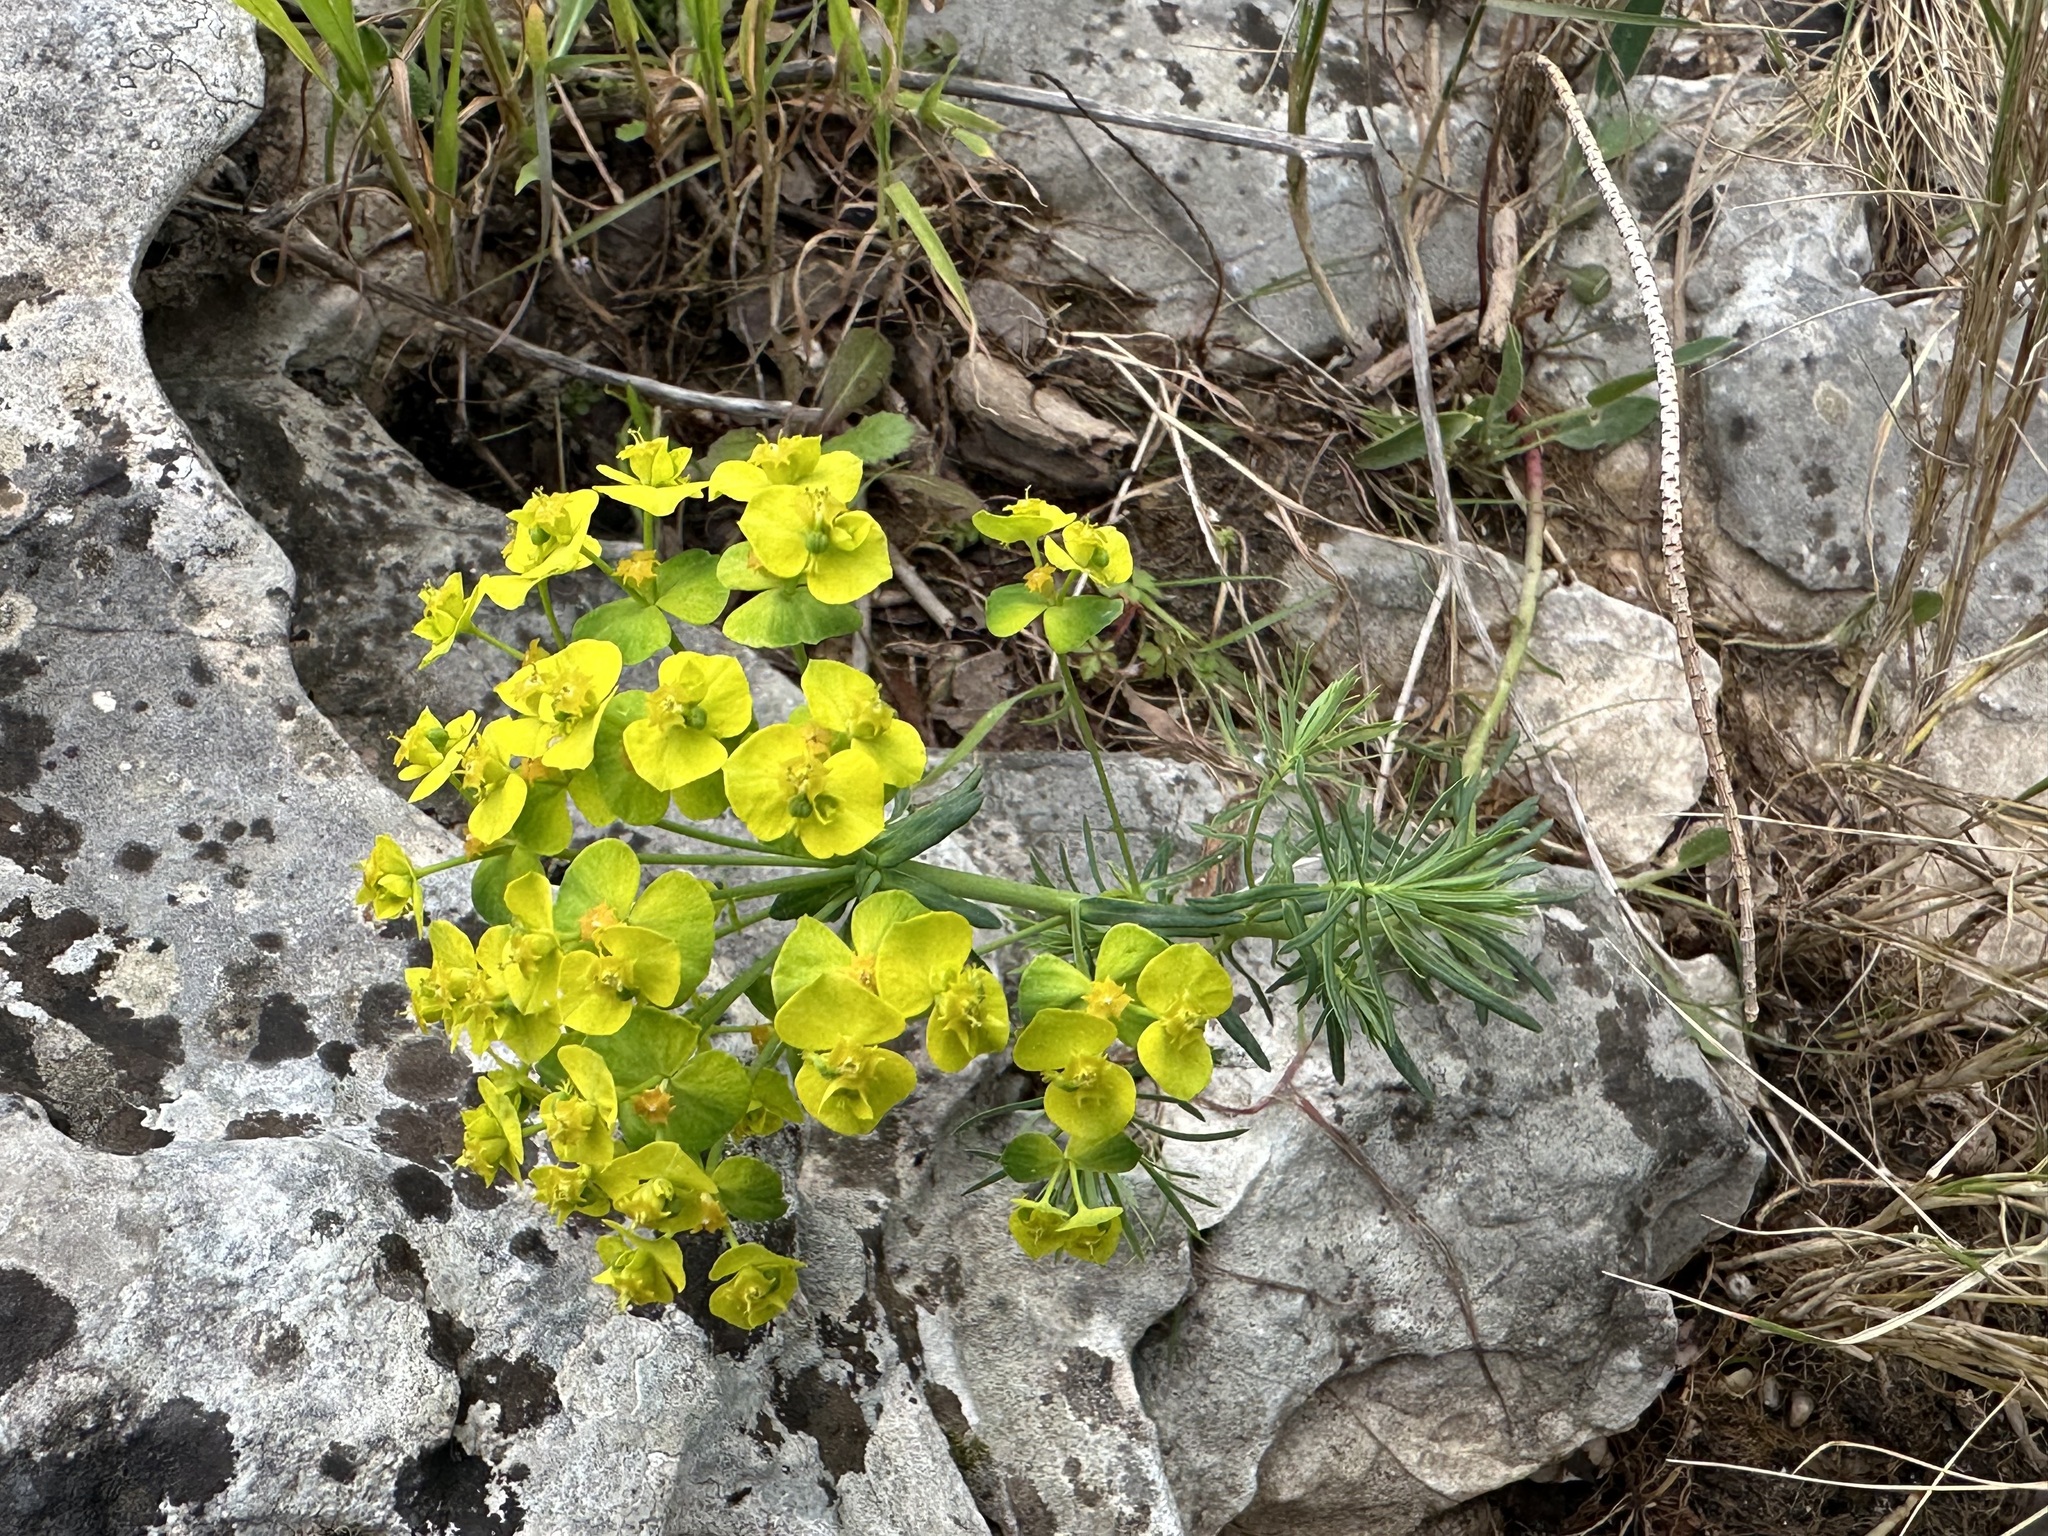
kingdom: Plantae
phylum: Tracheophyta
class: Magnoliopsida
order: Malpighiales
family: Euphorbiaceae
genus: Euphorbia
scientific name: Euphorbia cyparissias
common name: Cypress spurge
